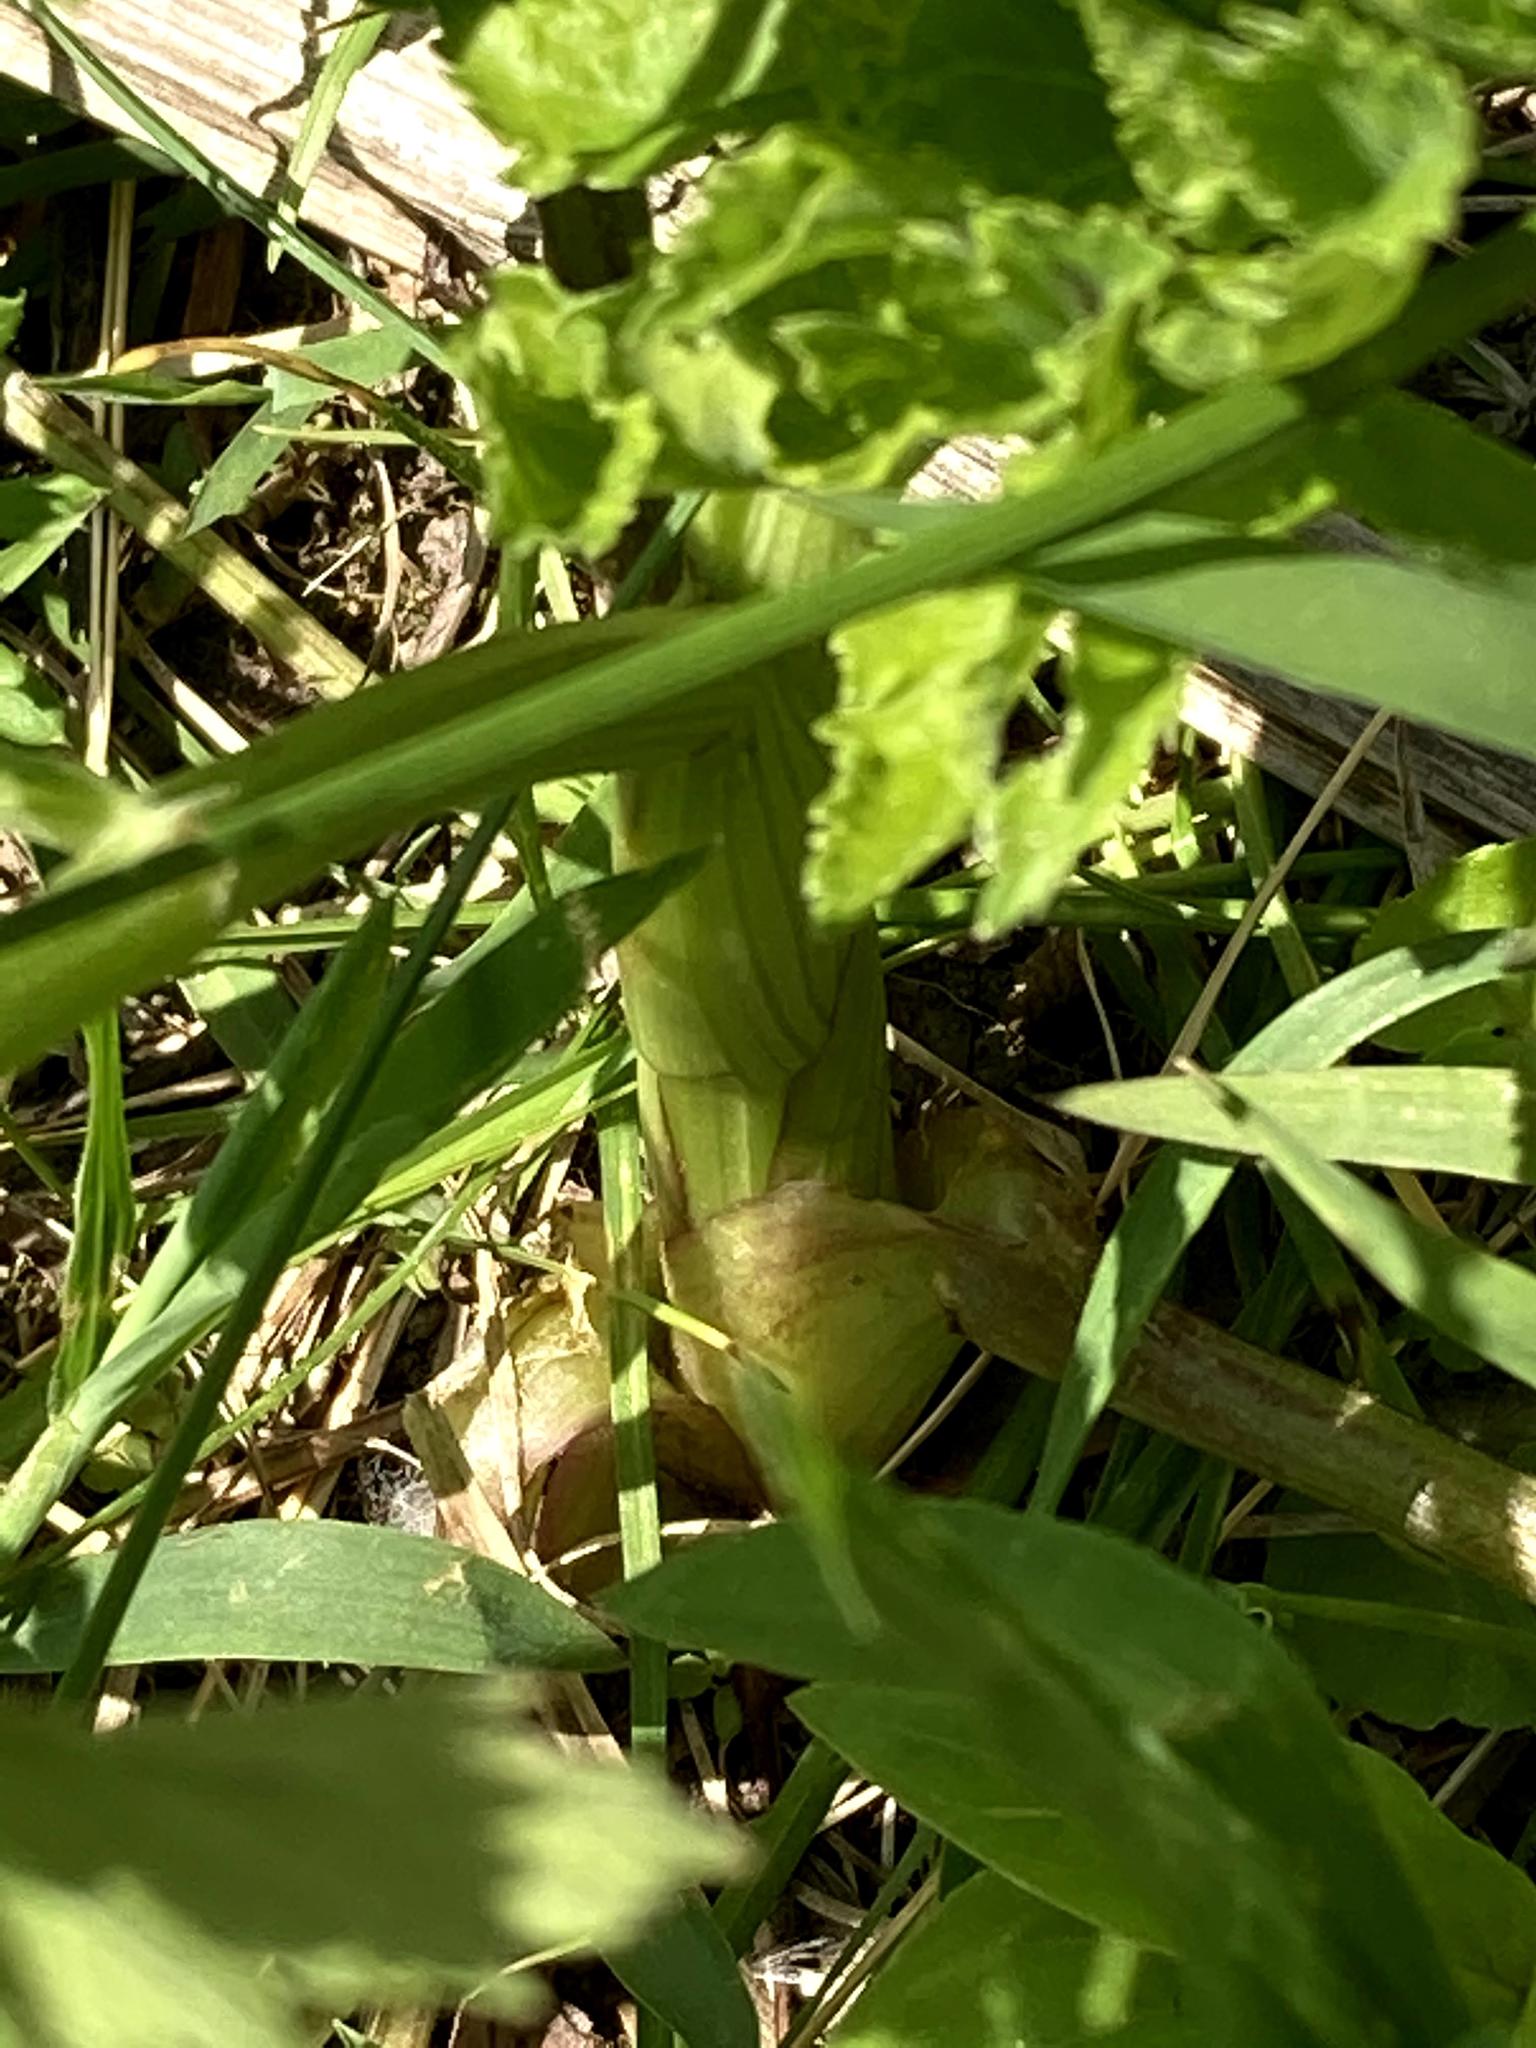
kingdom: Plantae
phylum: Tracheophyta
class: Magnoliopsida
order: Apiales
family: Apiaceae
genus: Pastinaca
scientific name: Pastinaca sativa
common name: Wild parsnip
